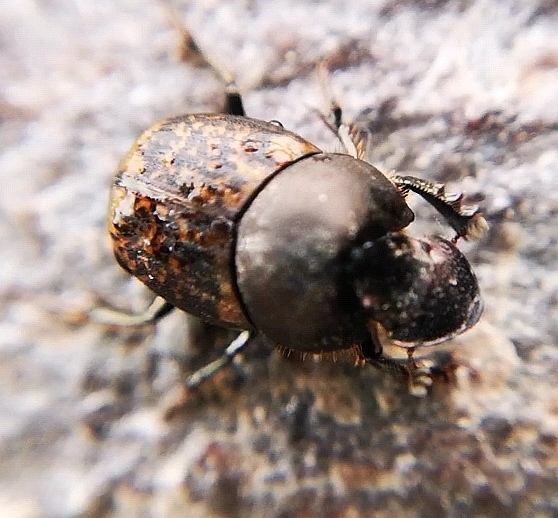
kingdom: Animalia
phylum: Arthropoda
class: Insecta
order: Coleoptera
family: Scarabaeidae
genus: Onthophagus
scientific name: Onthophagus fracticornis
